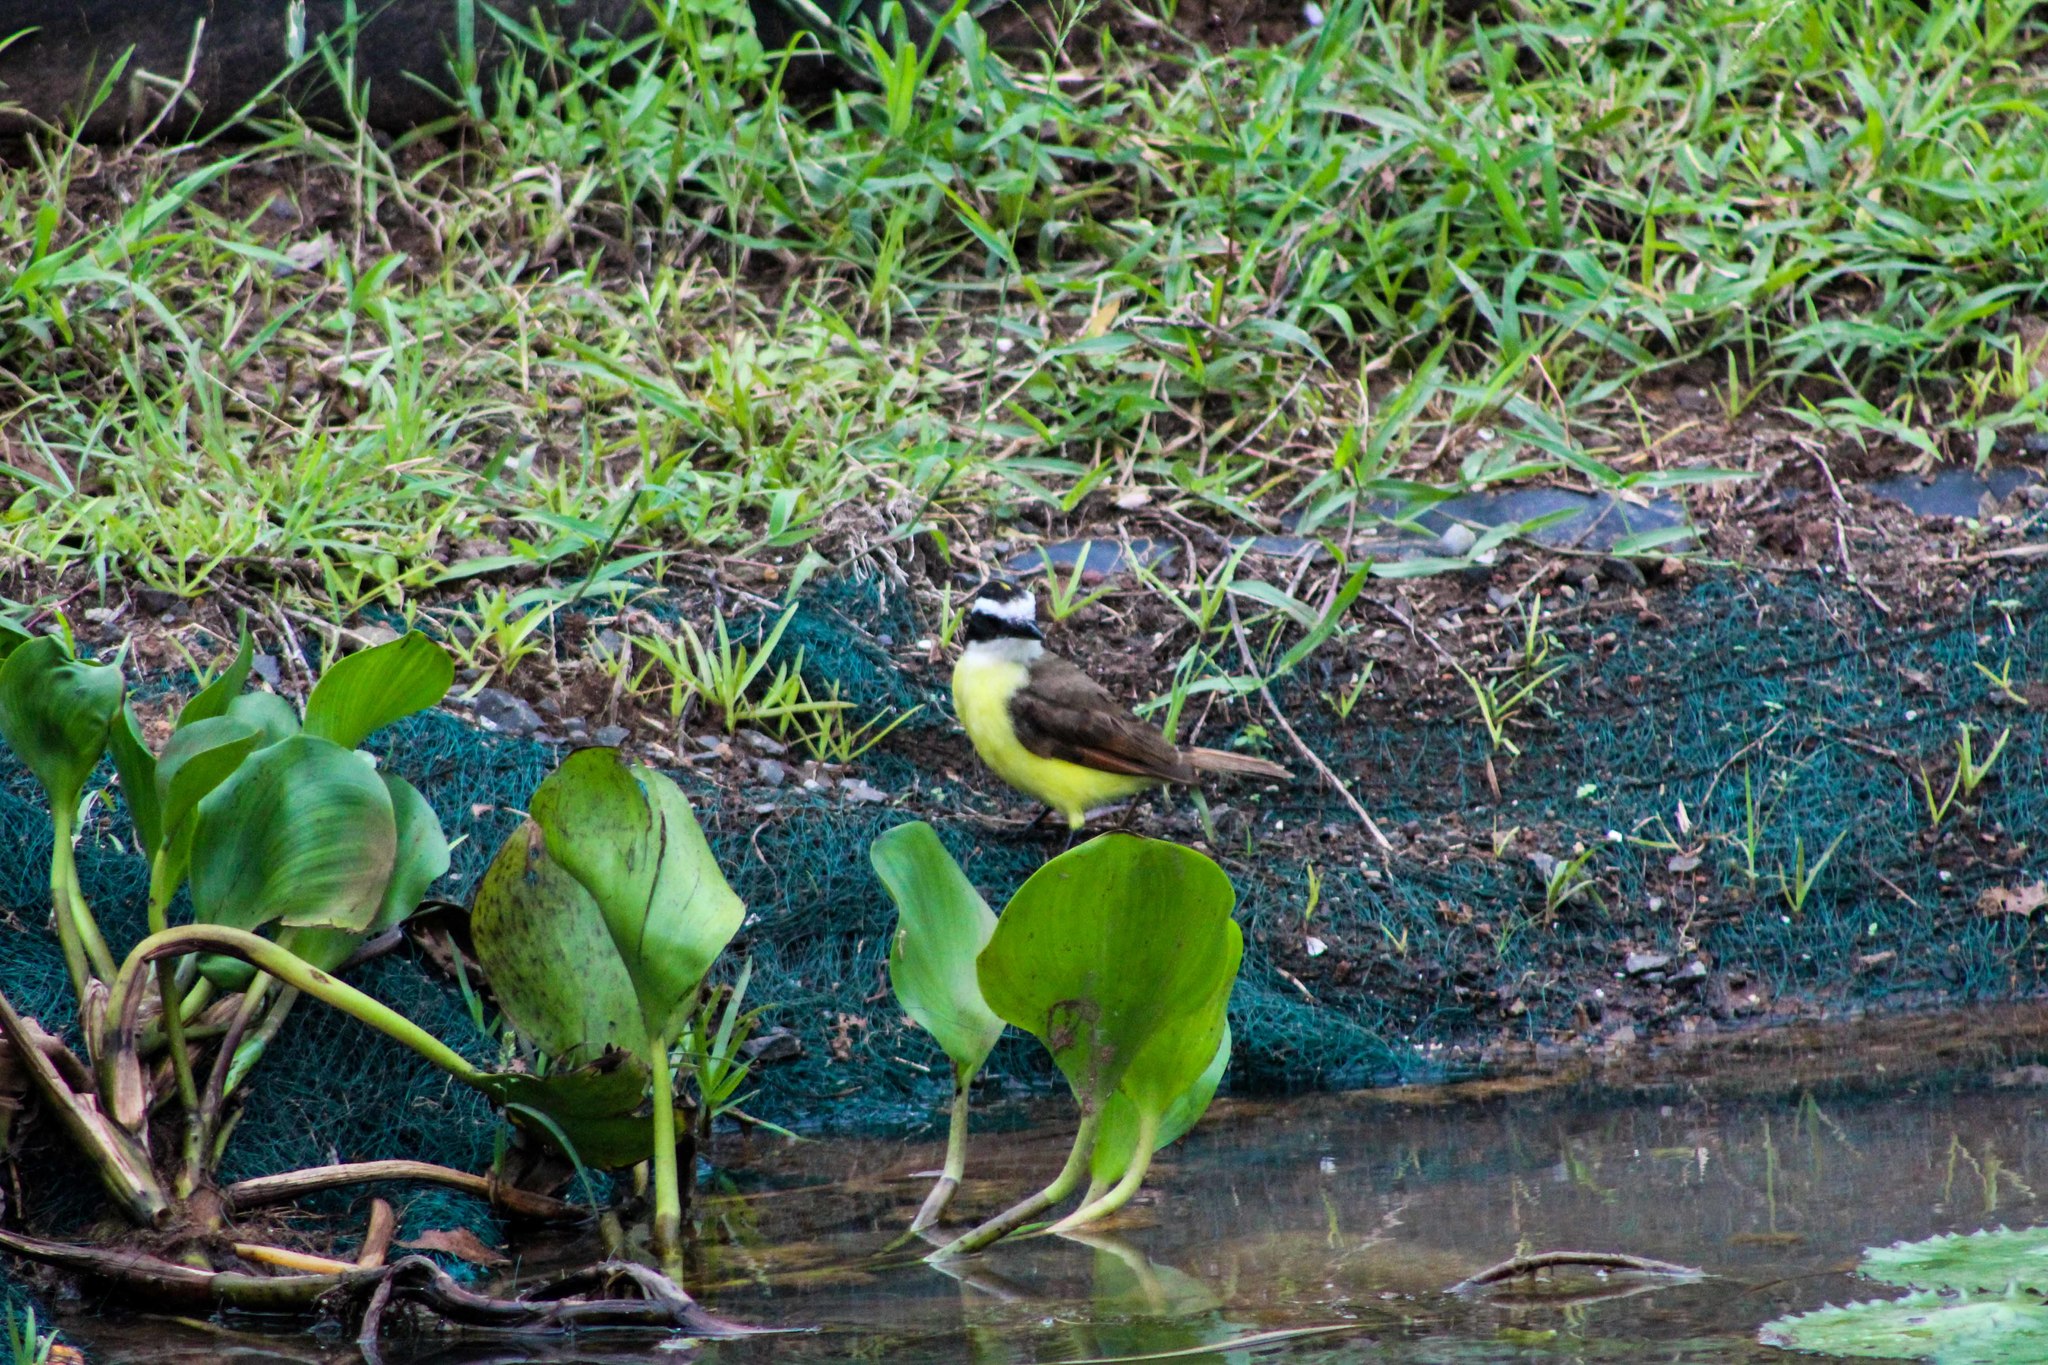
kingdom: Animalia
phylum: Chordata
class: Aves
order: Passeriformes
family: Tyrannidae
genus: Pitangus
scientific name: Pitangus sulphuratus
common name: Great kiskadee
